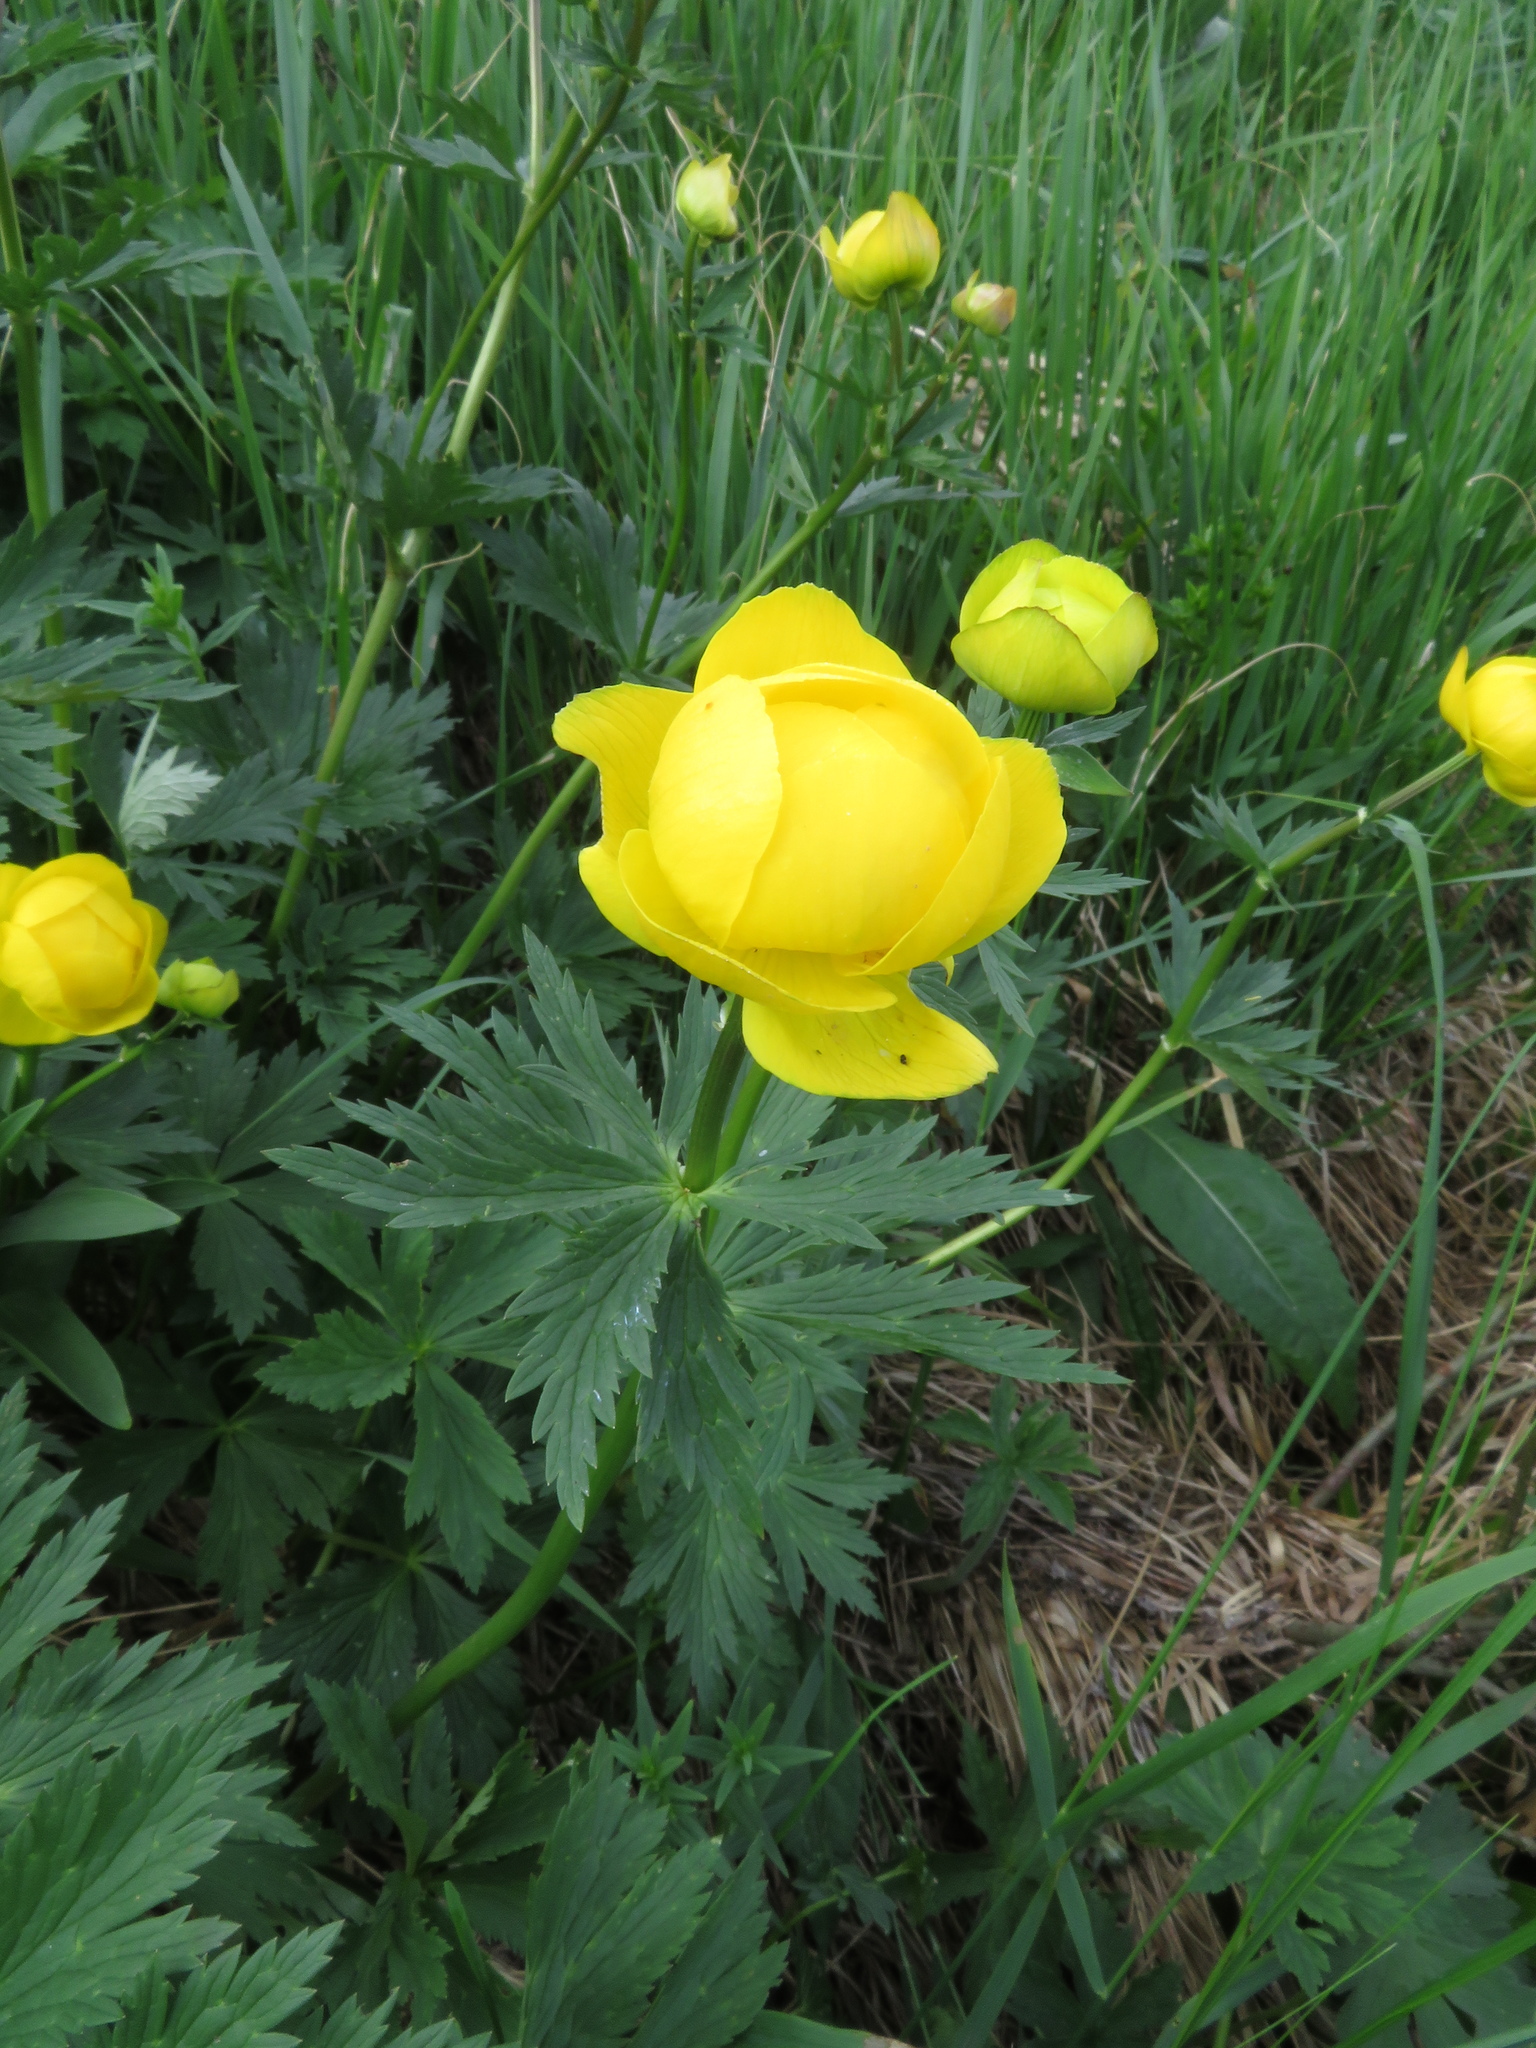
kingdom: Plantae
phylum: Tracheophyta
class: Magnoliopsida
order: Ranunculales
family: Ranunculaceae
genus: Trollius
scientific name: Trollius europaeus
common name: European globeflower
